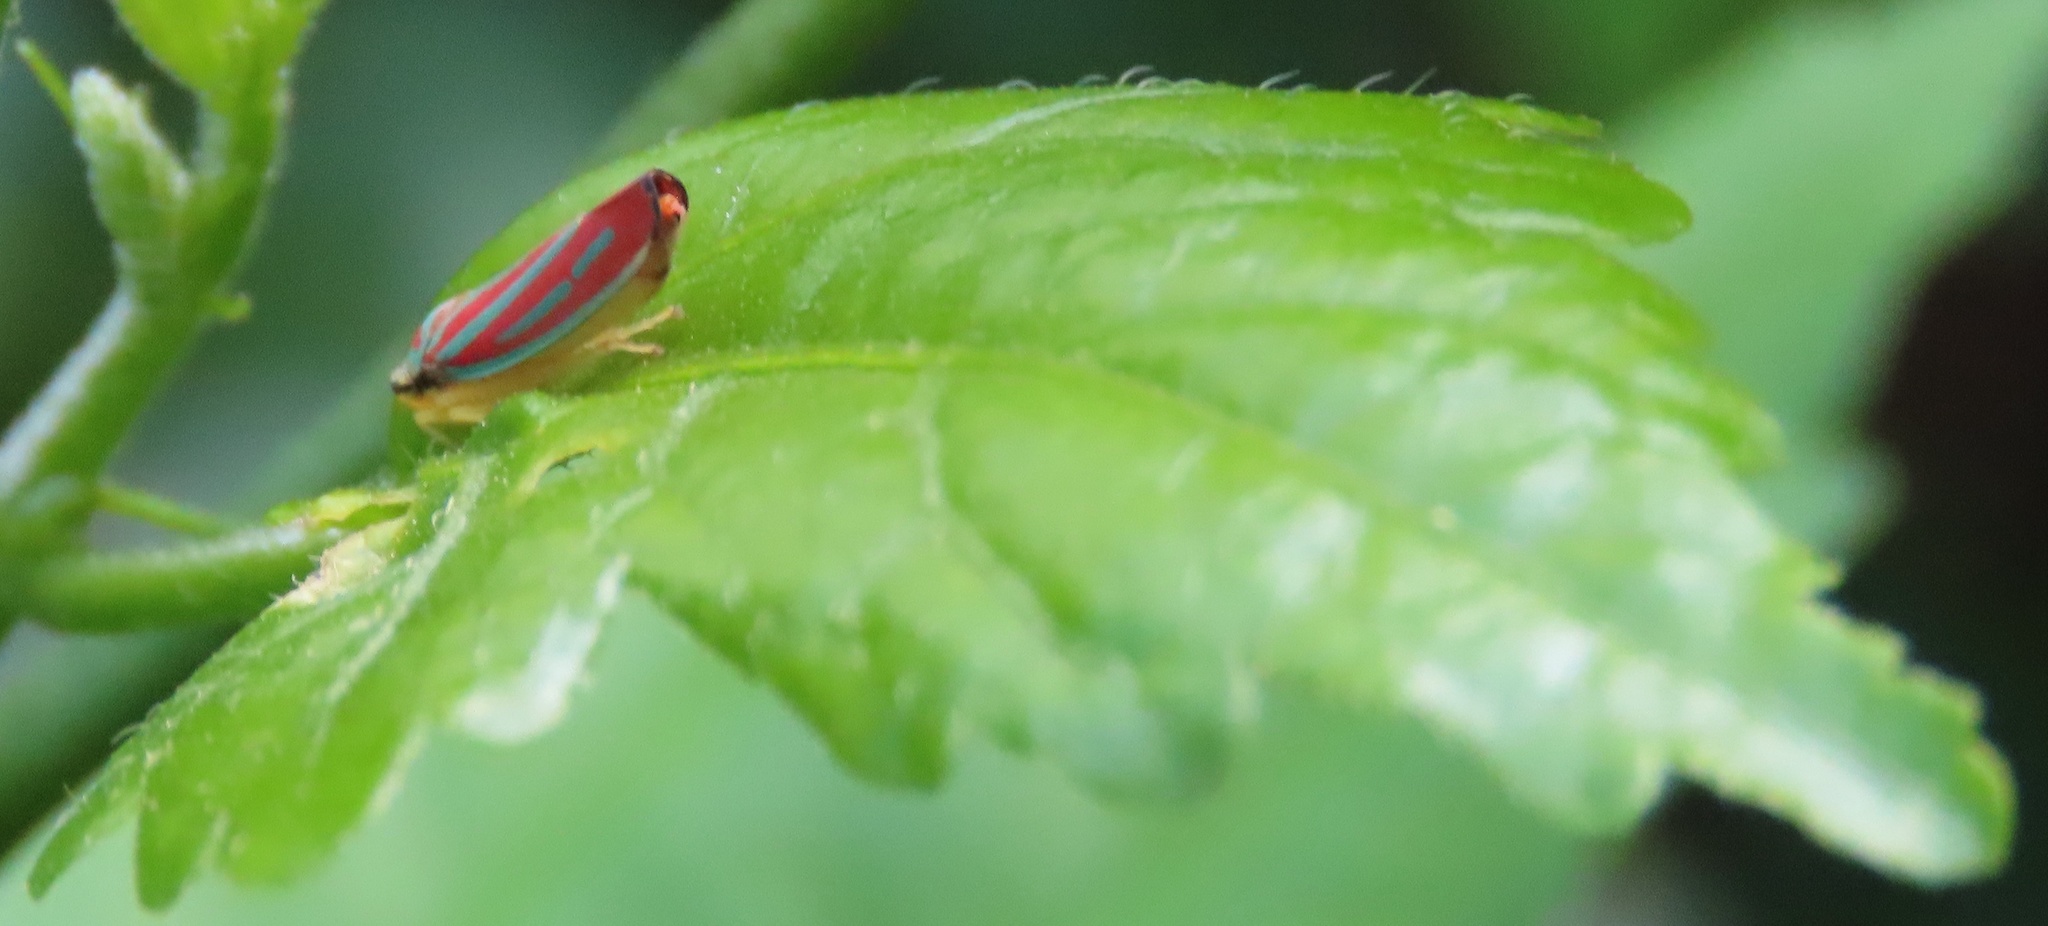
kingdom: Animalia
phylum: Arthropoda
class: Insecta
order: Hemiptera
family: Cicadellidae
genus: Graphocephala
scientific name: Graphocephala coccinea
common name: Candy-striped leafhopper
